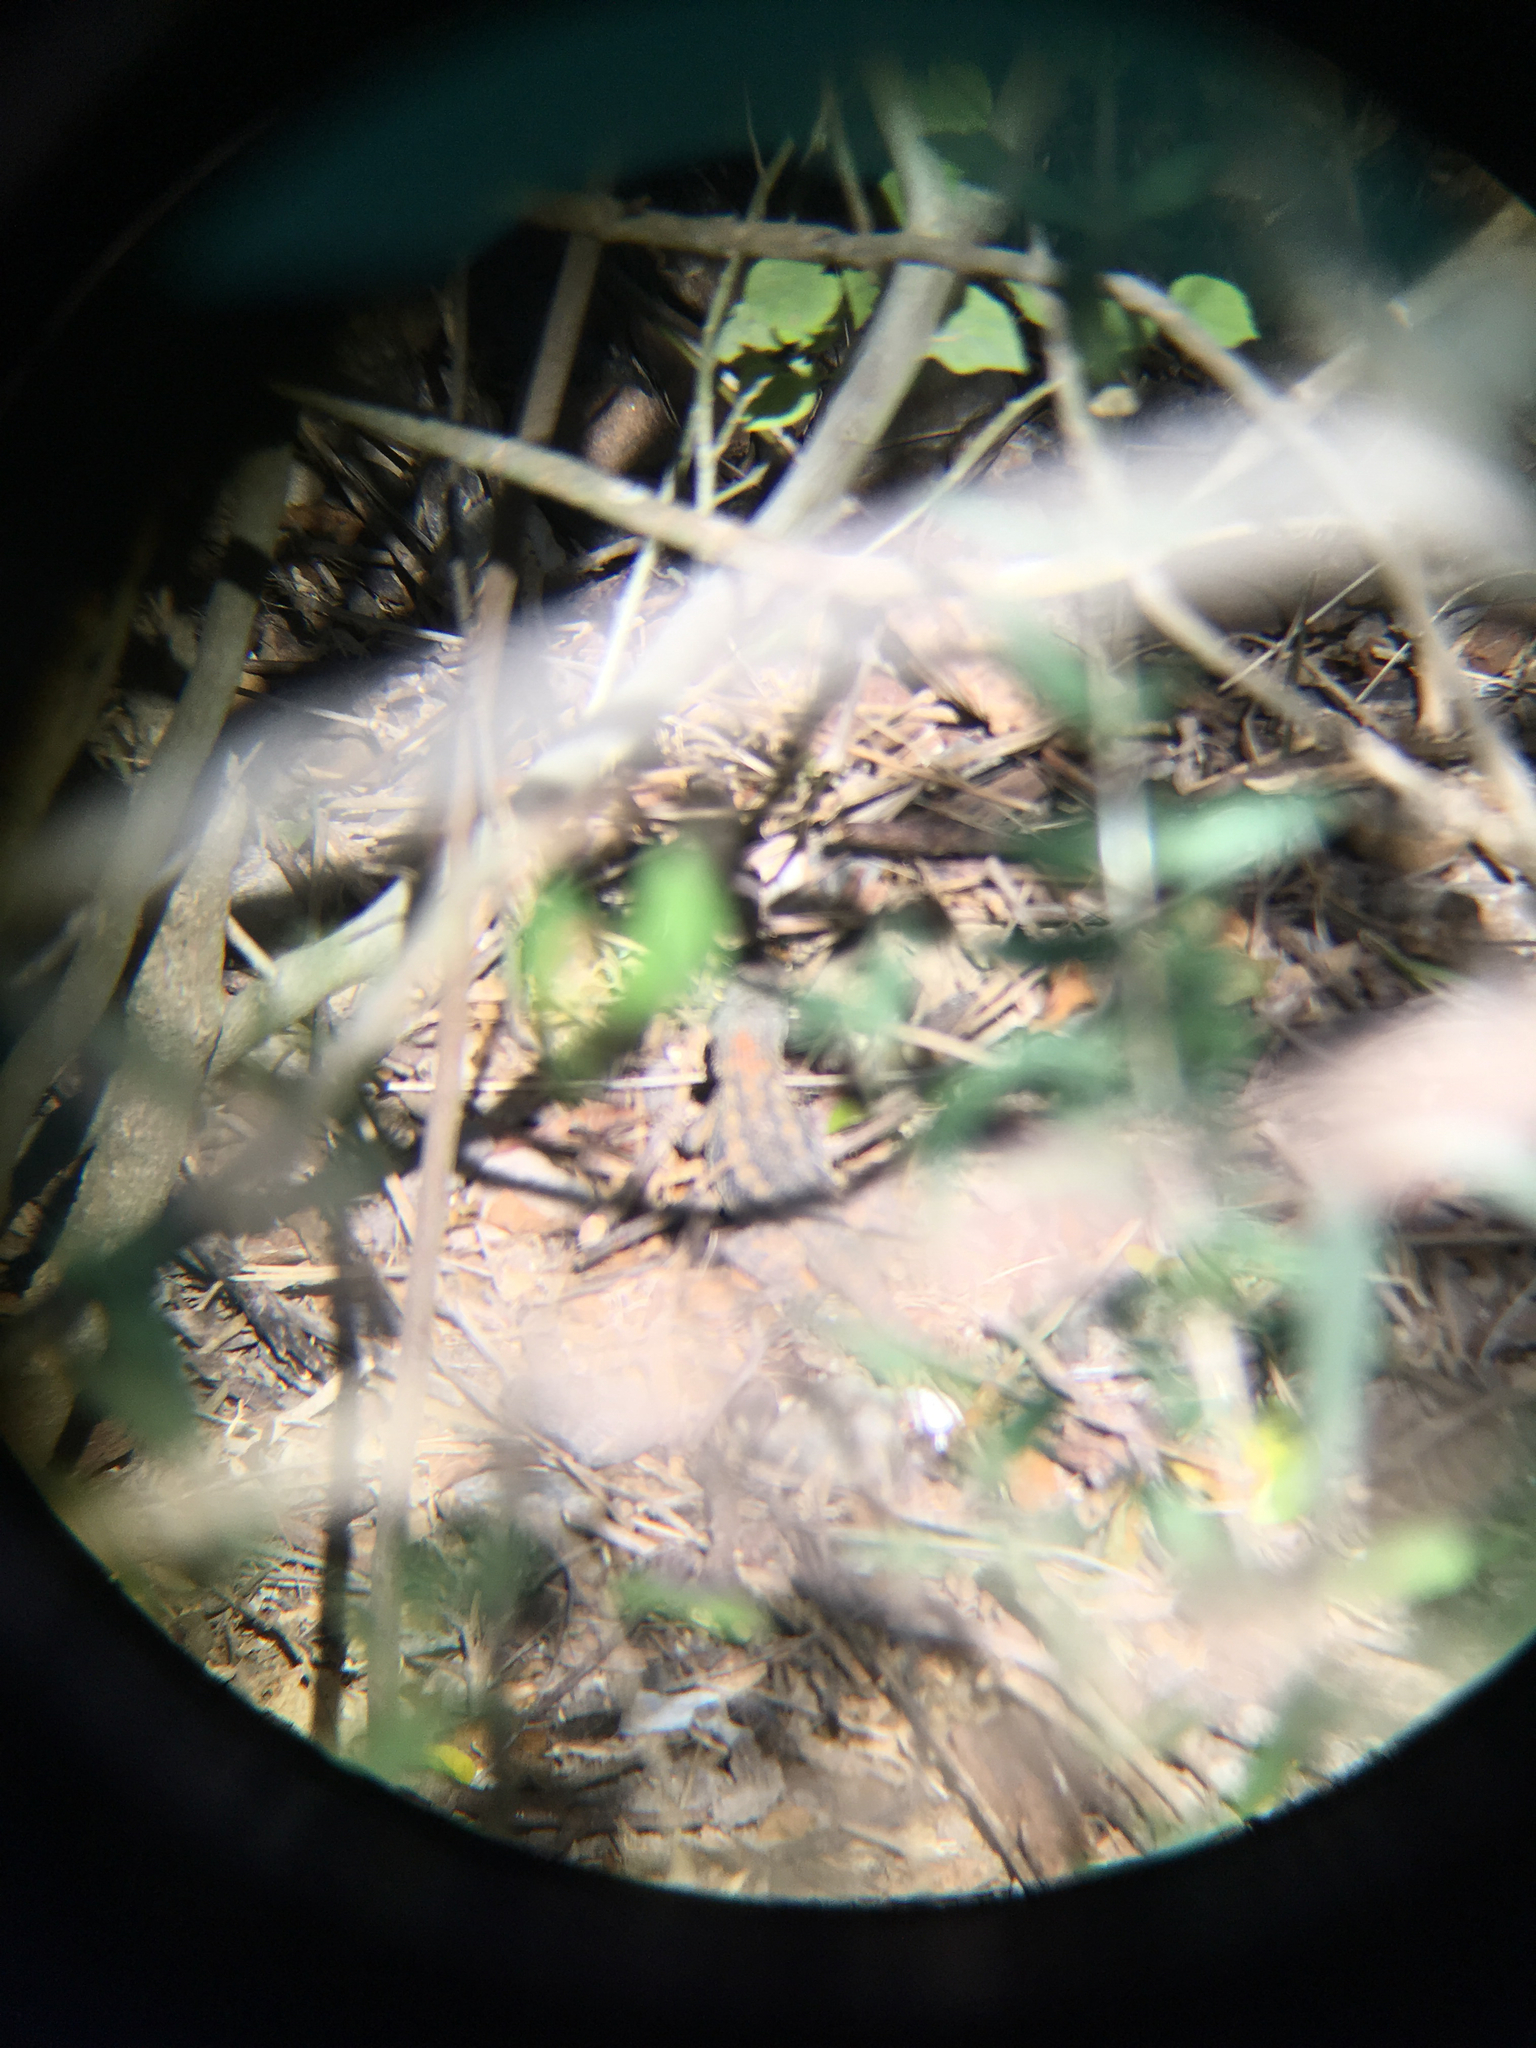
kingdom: Animalia
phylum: Chordata
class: Squamata
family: Phrynosomatidae
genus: Sceloporus
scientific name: Sceloporus olivaceus
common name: Texas spiny lizard
